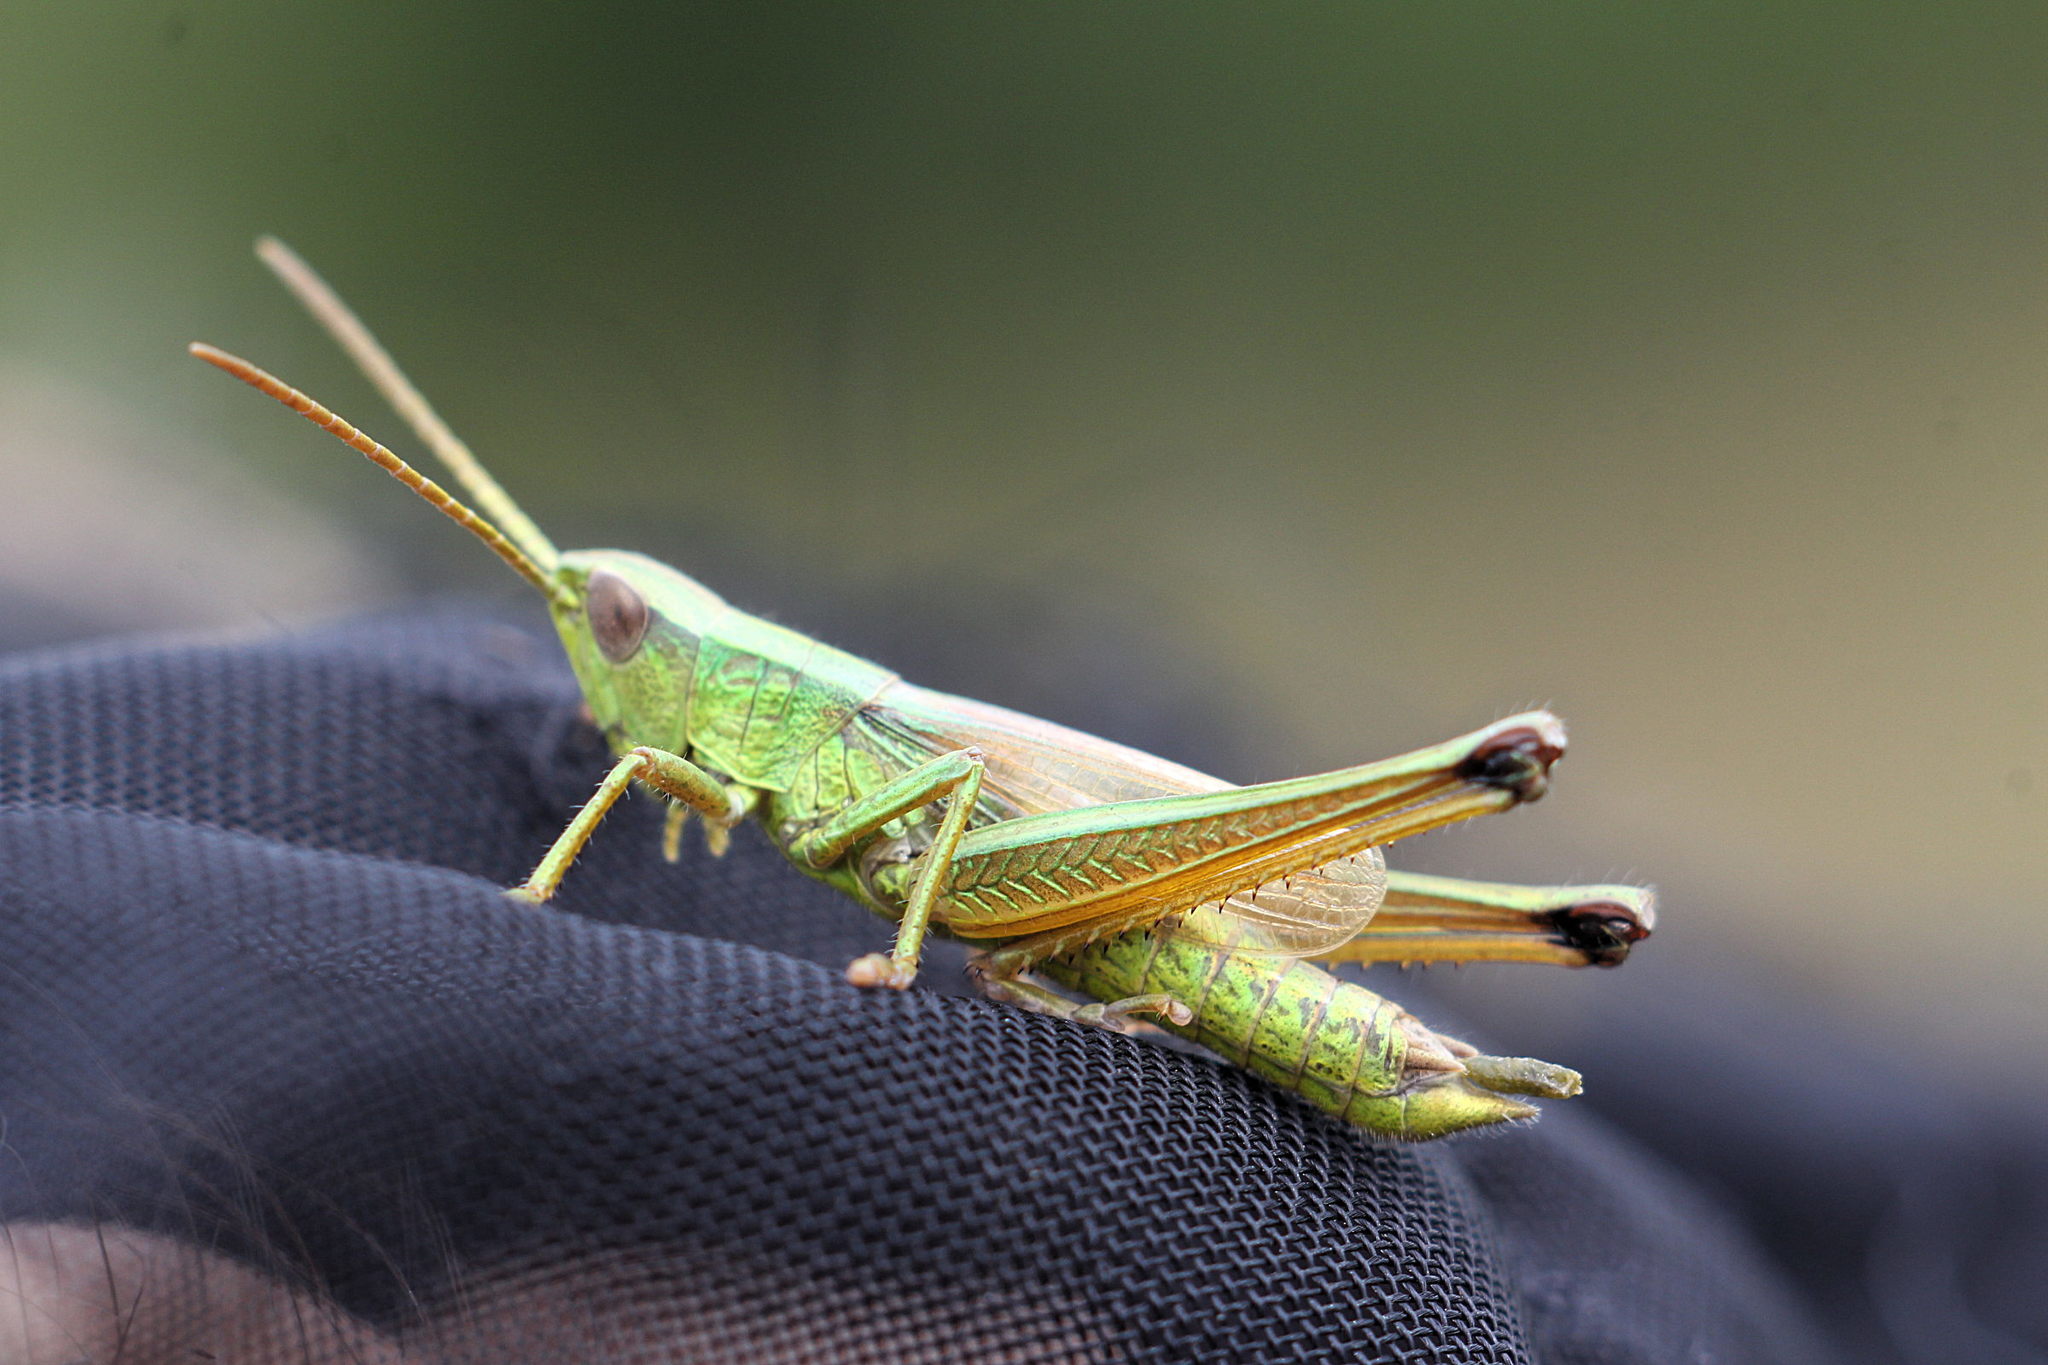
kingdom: Animalia
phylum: Arthropoda
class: Insecta
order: Orthoptera
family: Acrididae
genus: Chrysochraon
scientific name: Chrysochraon dispar
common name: Large gold grasshopper
